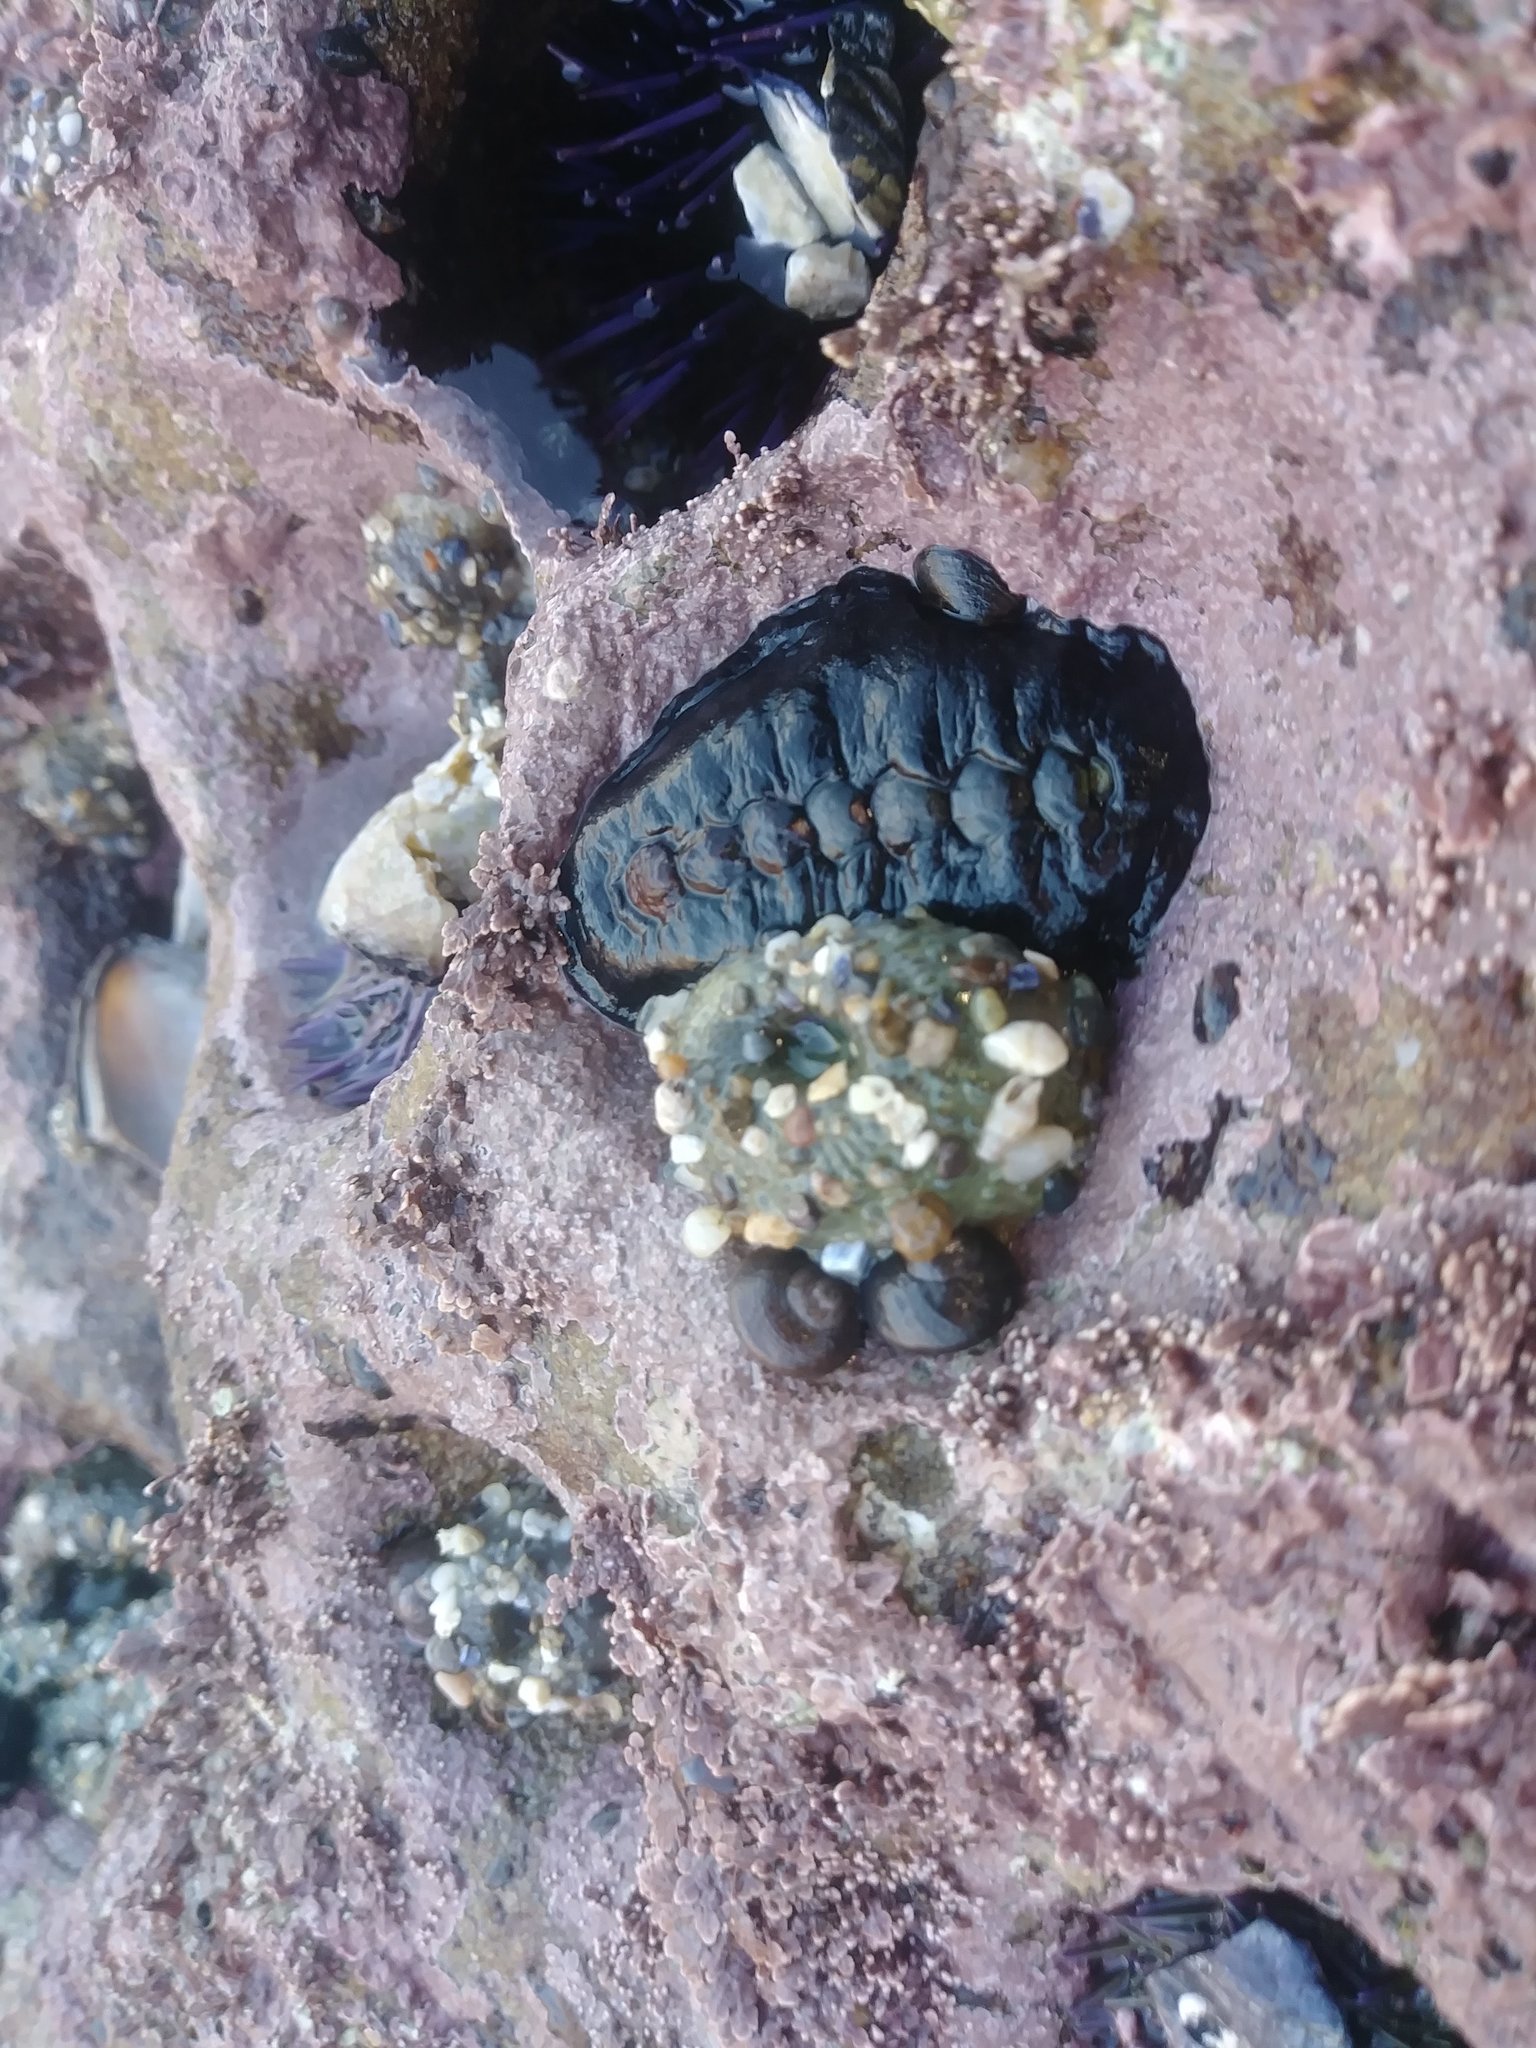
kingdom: Animalia
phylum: Mollusca
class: Polyplacophora
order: Chitonida
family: Mopaliidae
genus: Katharina
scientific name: Katharina tunicata
